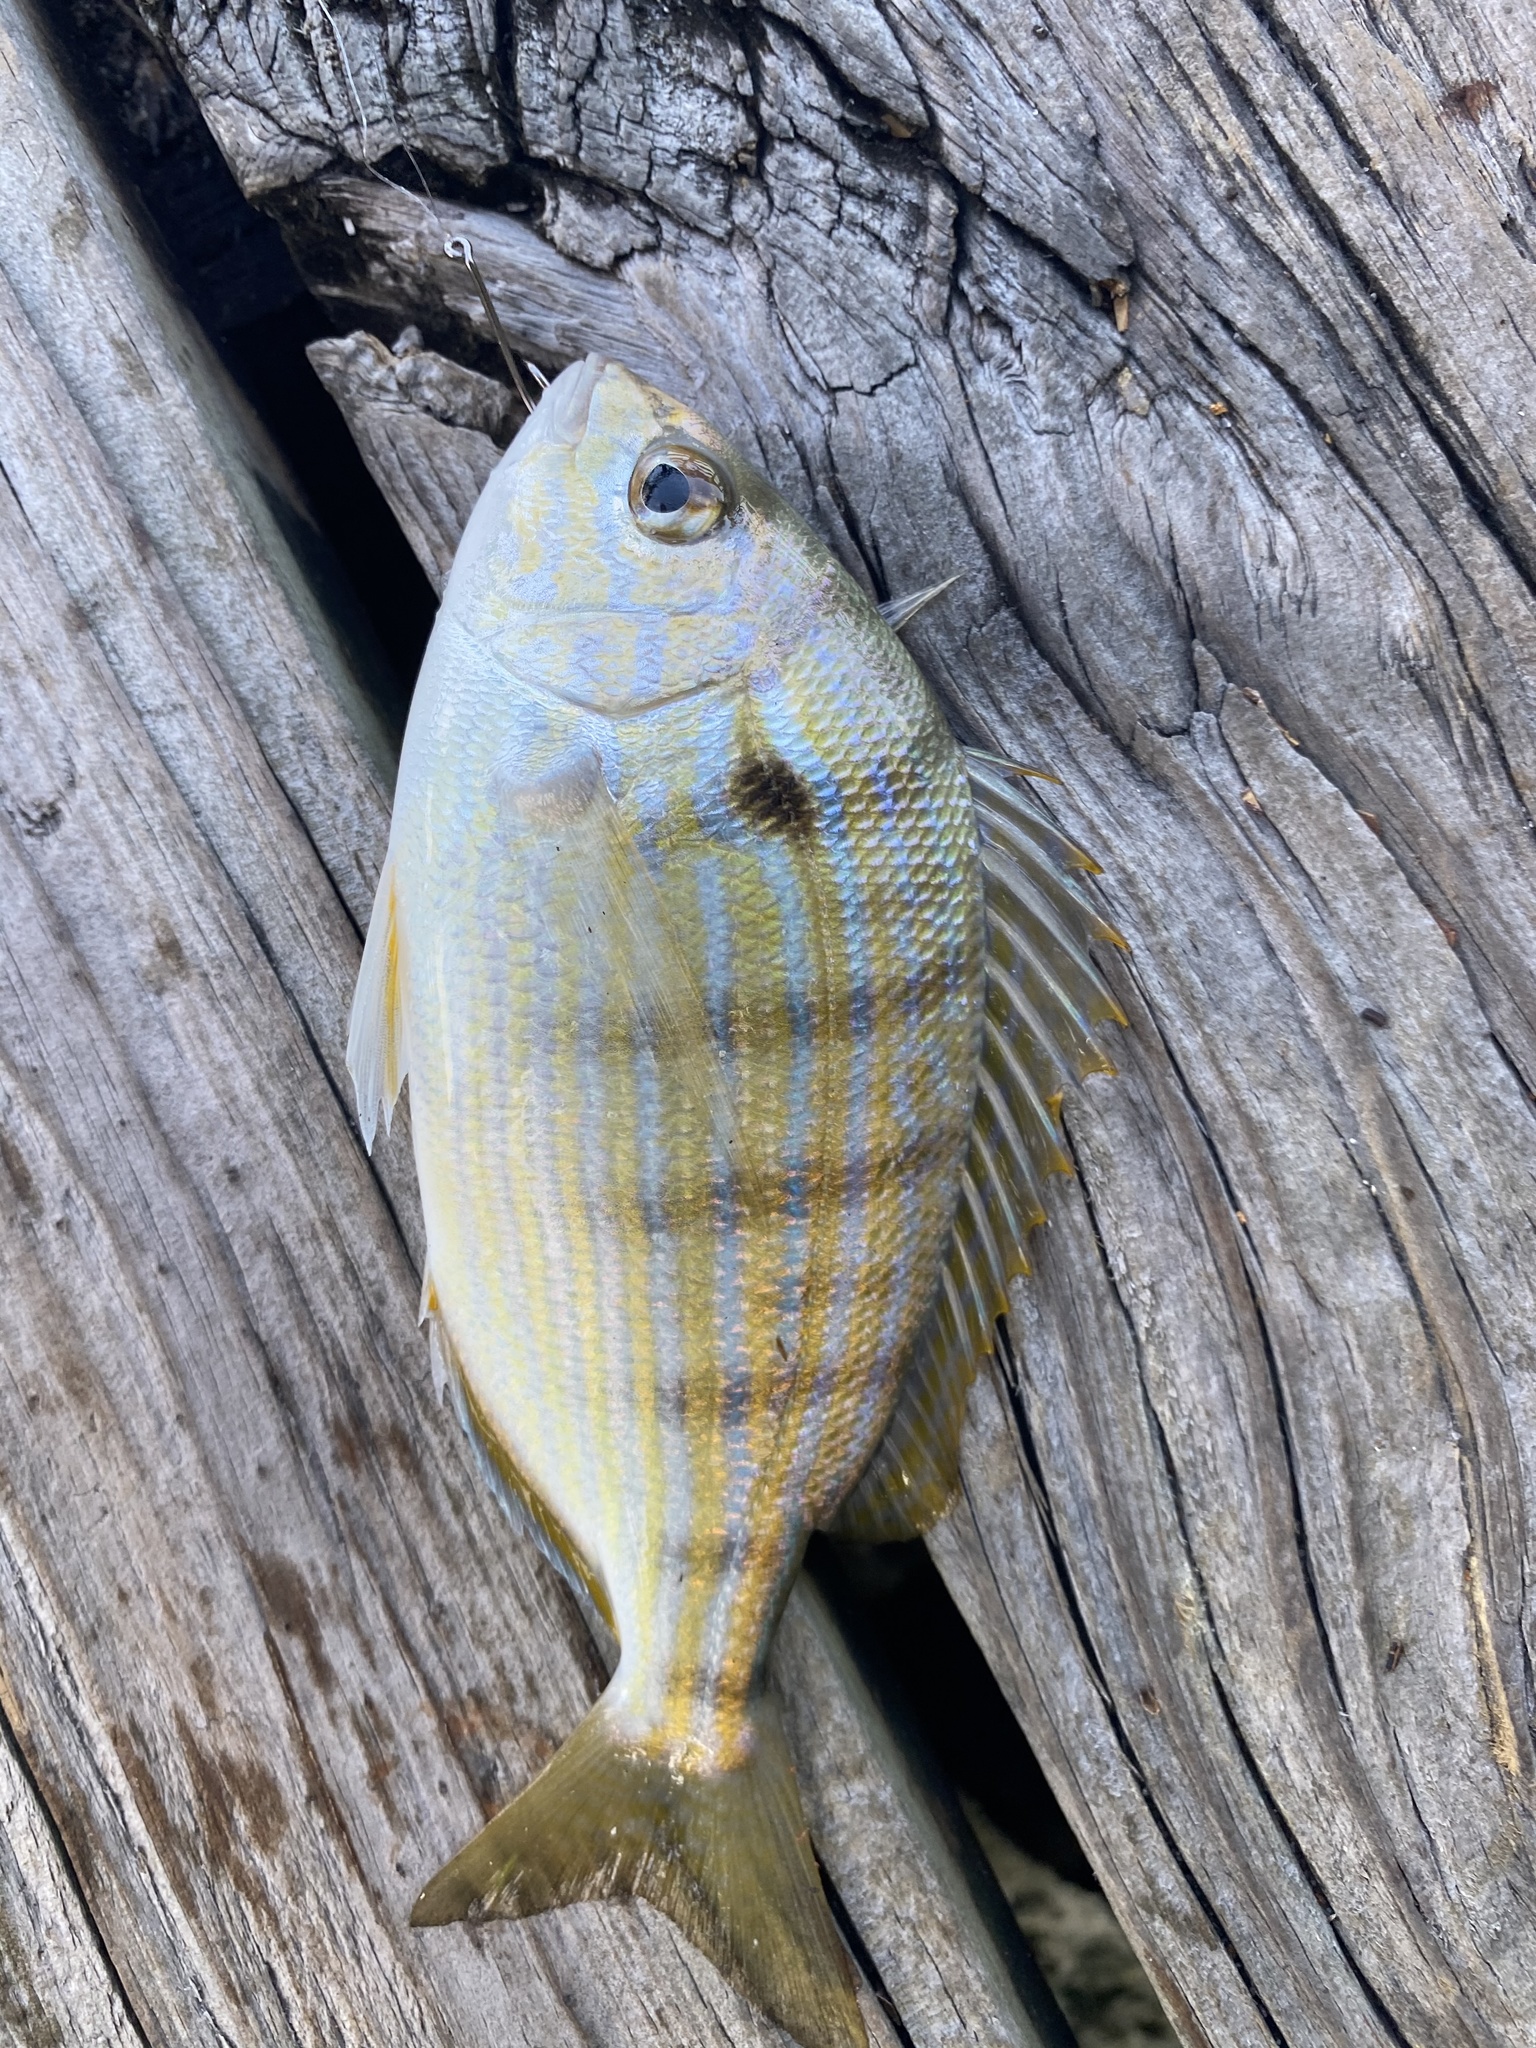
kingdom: Animalia
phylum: Chordata
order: Perciformes
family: Sparidae
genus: Lagodon
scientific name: Lagodon rhomboides
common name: Pinfish
